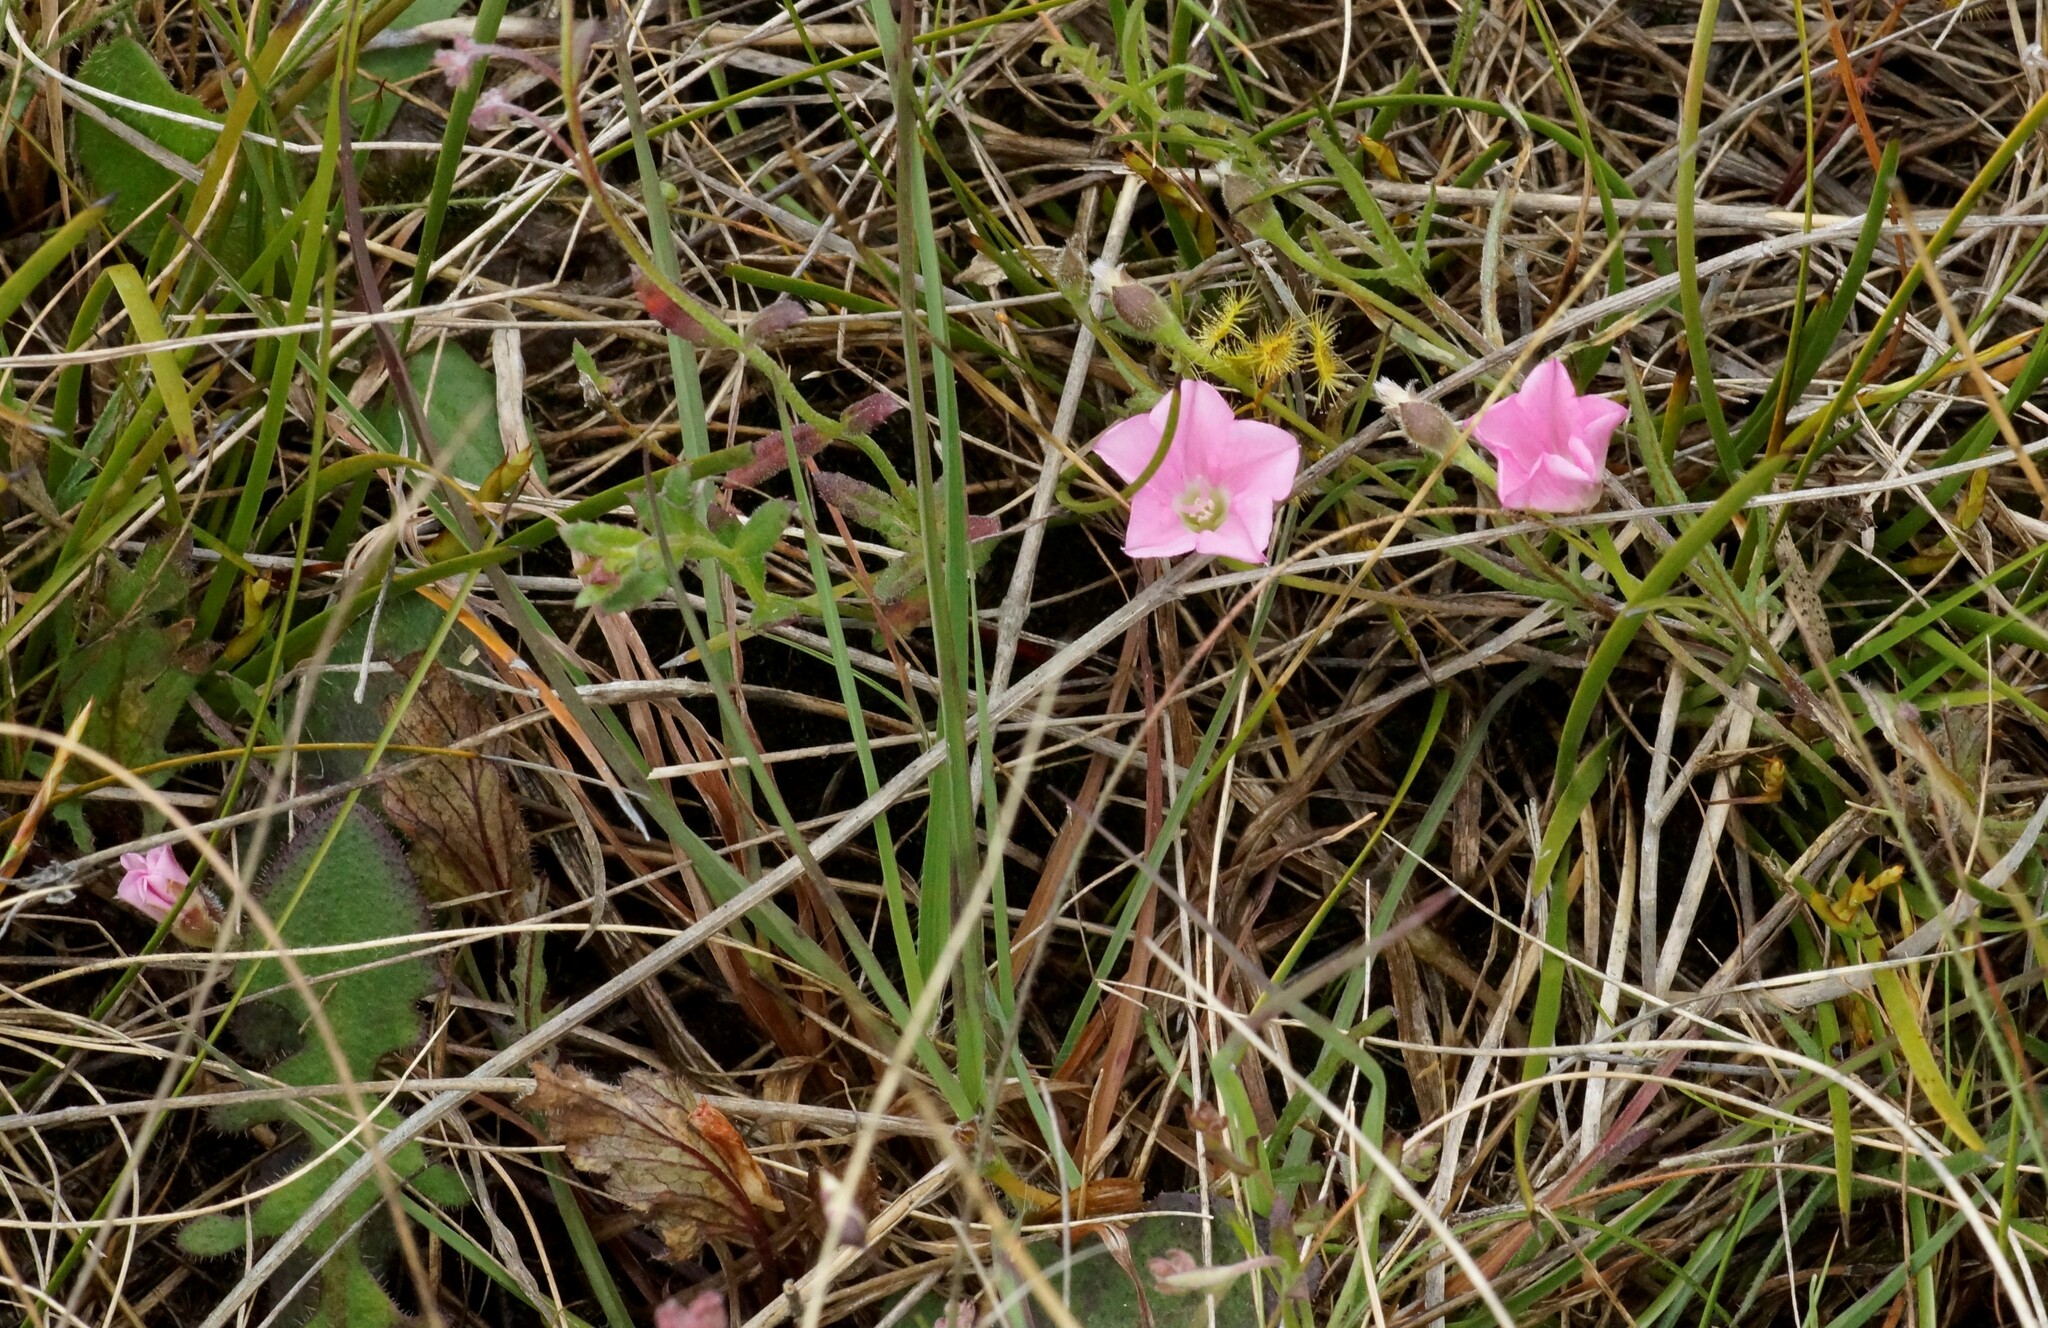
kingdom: Plantae
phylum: Tracheophyta
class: Magnoliopsida
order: Solanales
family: Convolvulaceae
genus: Convolvulus
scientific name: Convolvulus angustissimus
